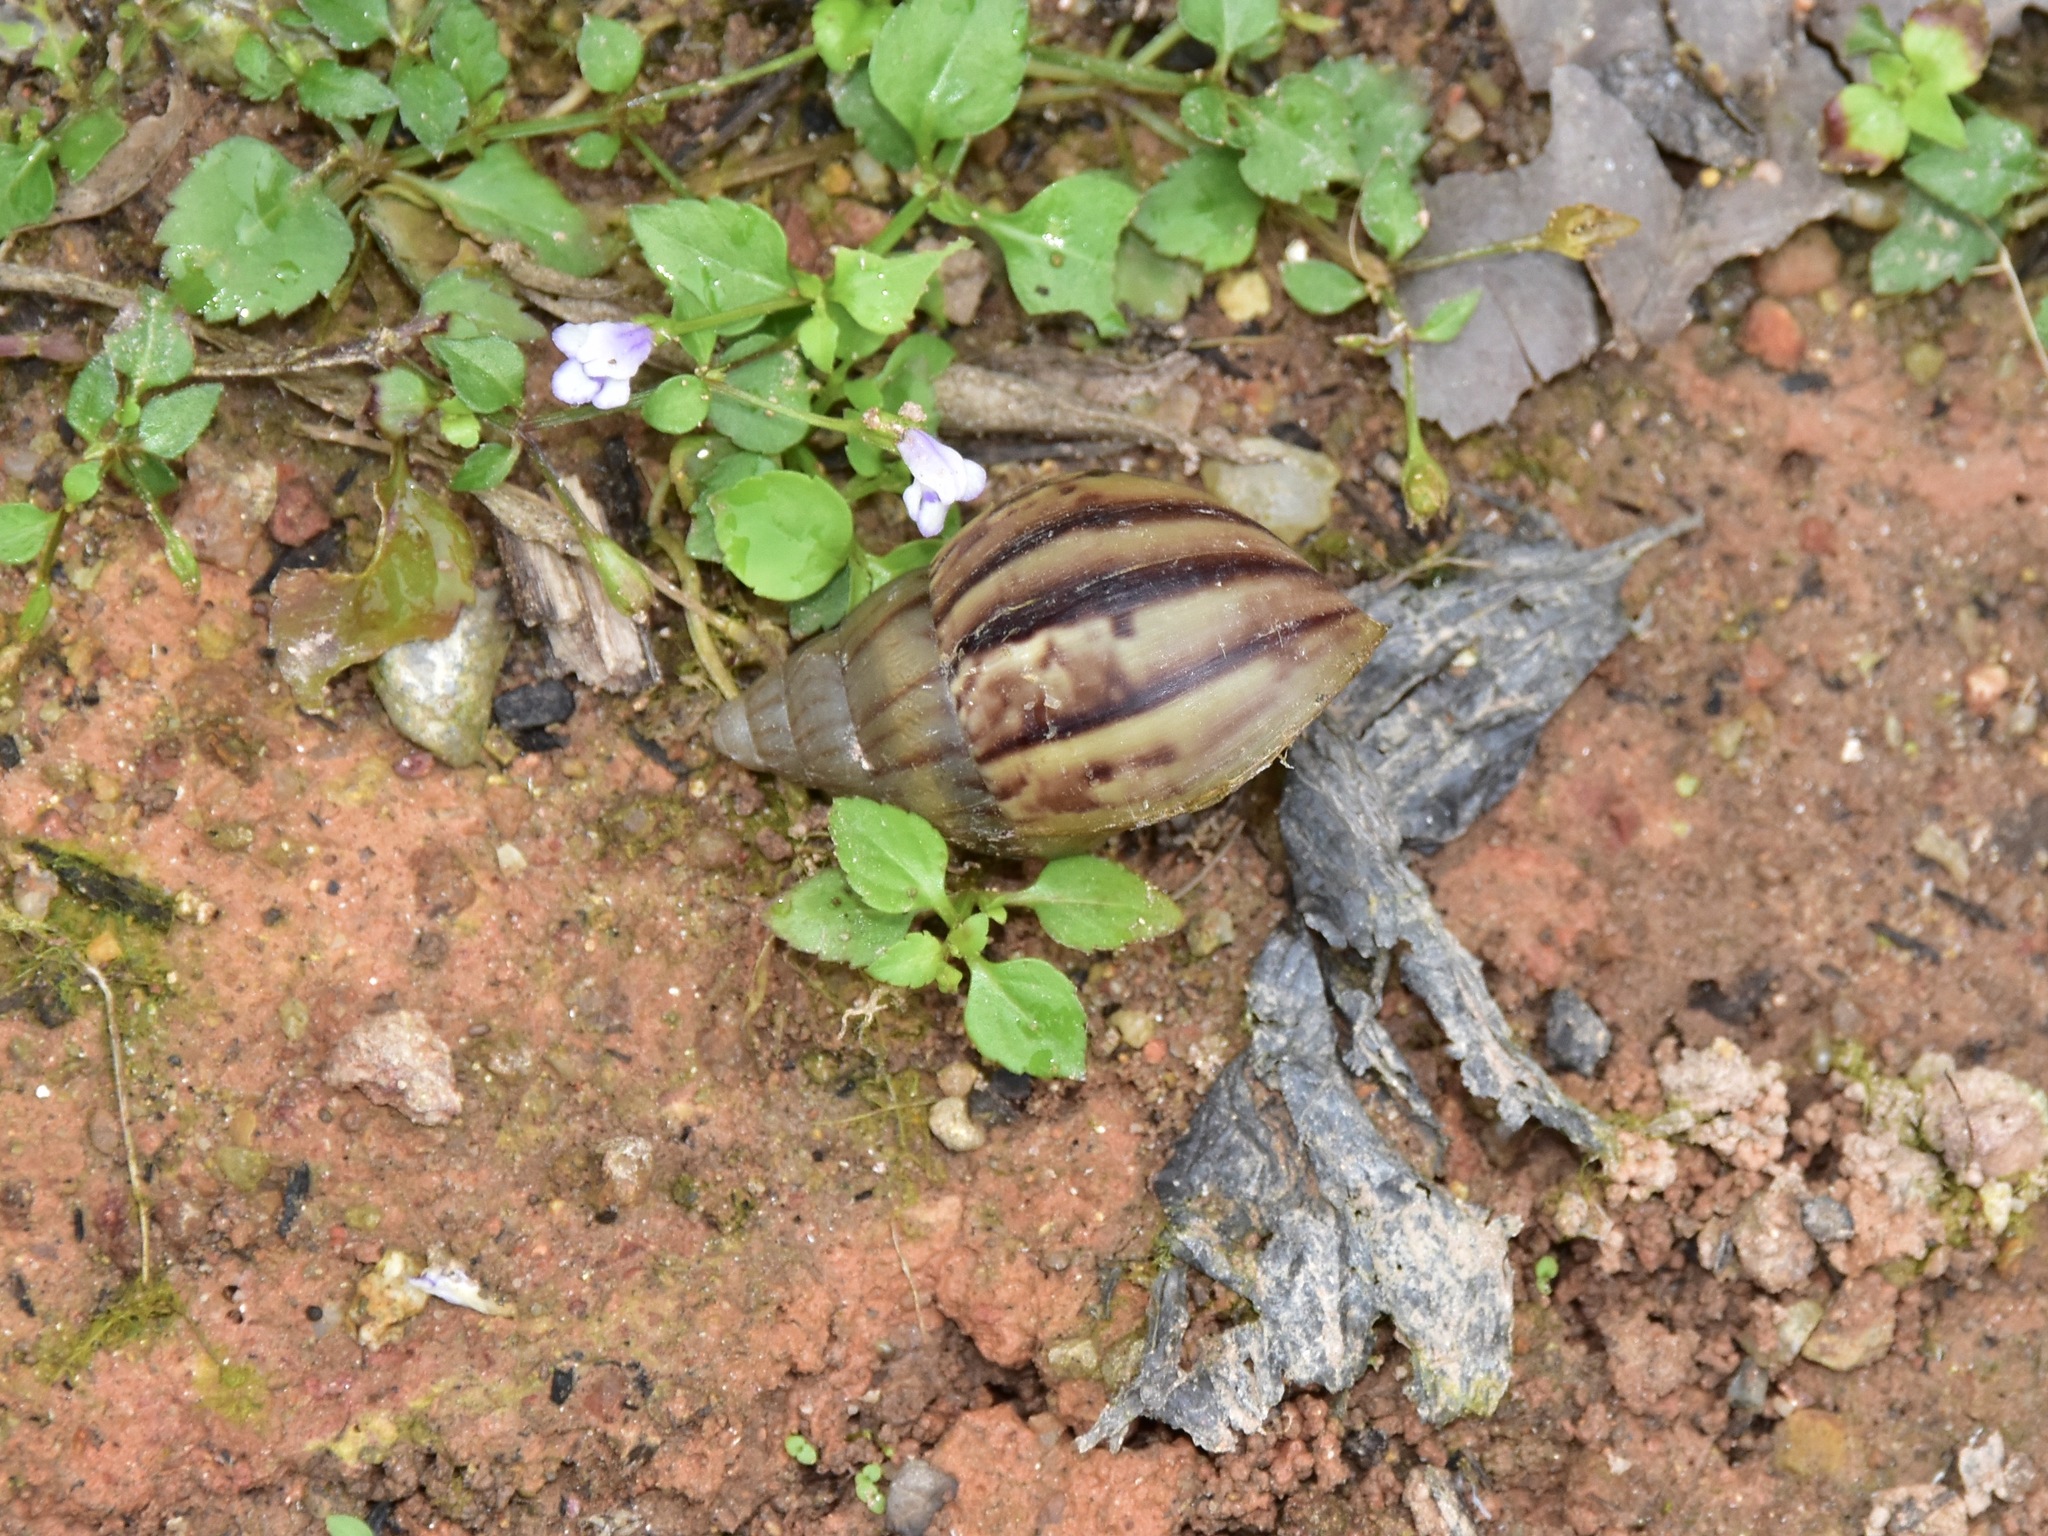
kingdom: Animalia
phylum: Mollusca
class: Gastropoda
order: Stylommatophora
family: Achatinidae
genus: Lissachatina
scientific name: Lissachatina fulica
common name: Giant african snail
